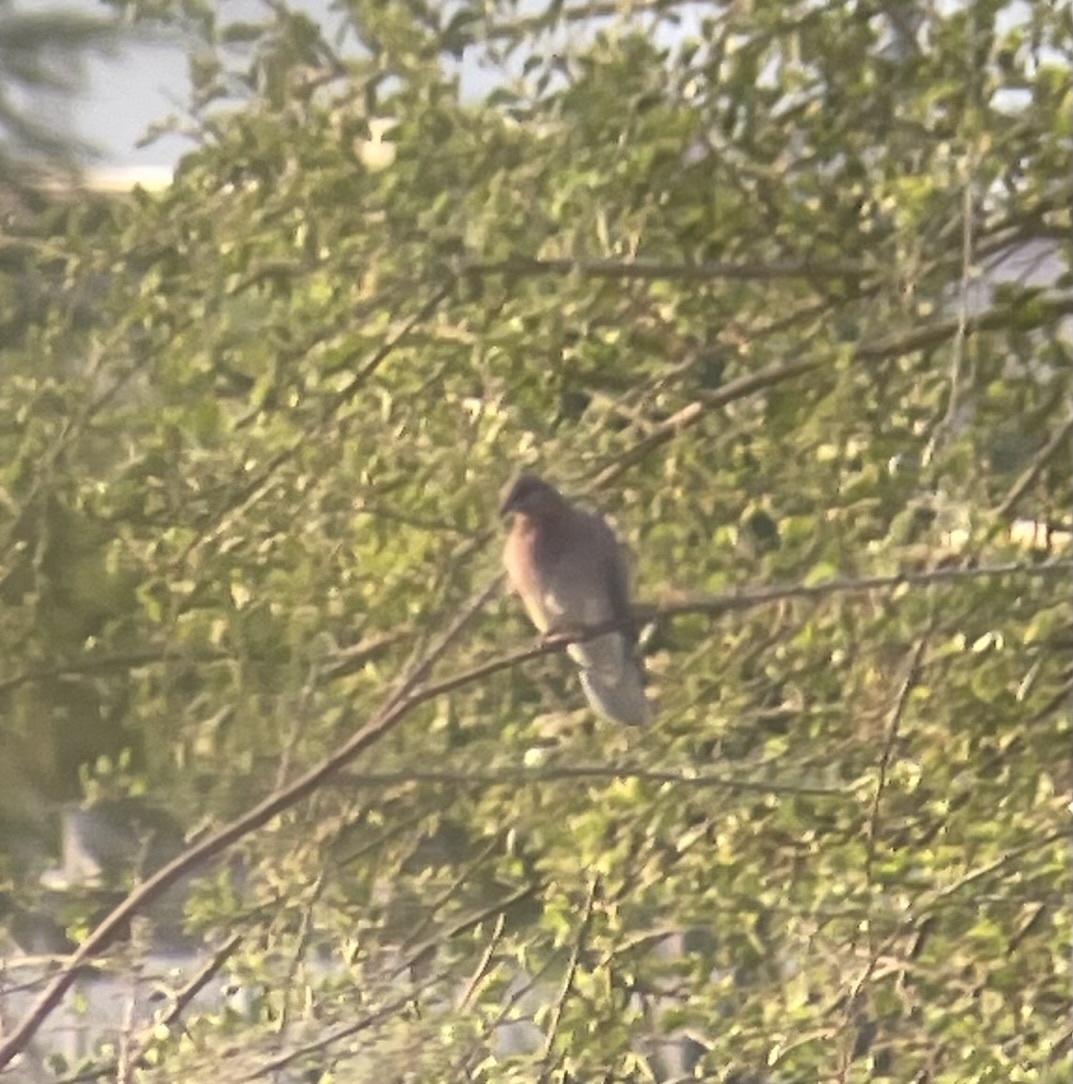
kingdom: Animalia
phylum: Chordata
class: Aves
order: Columbiformes
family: Columbidae
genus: Spilopelia
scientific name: Spilopelia senegalensis
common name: Laughing dove
